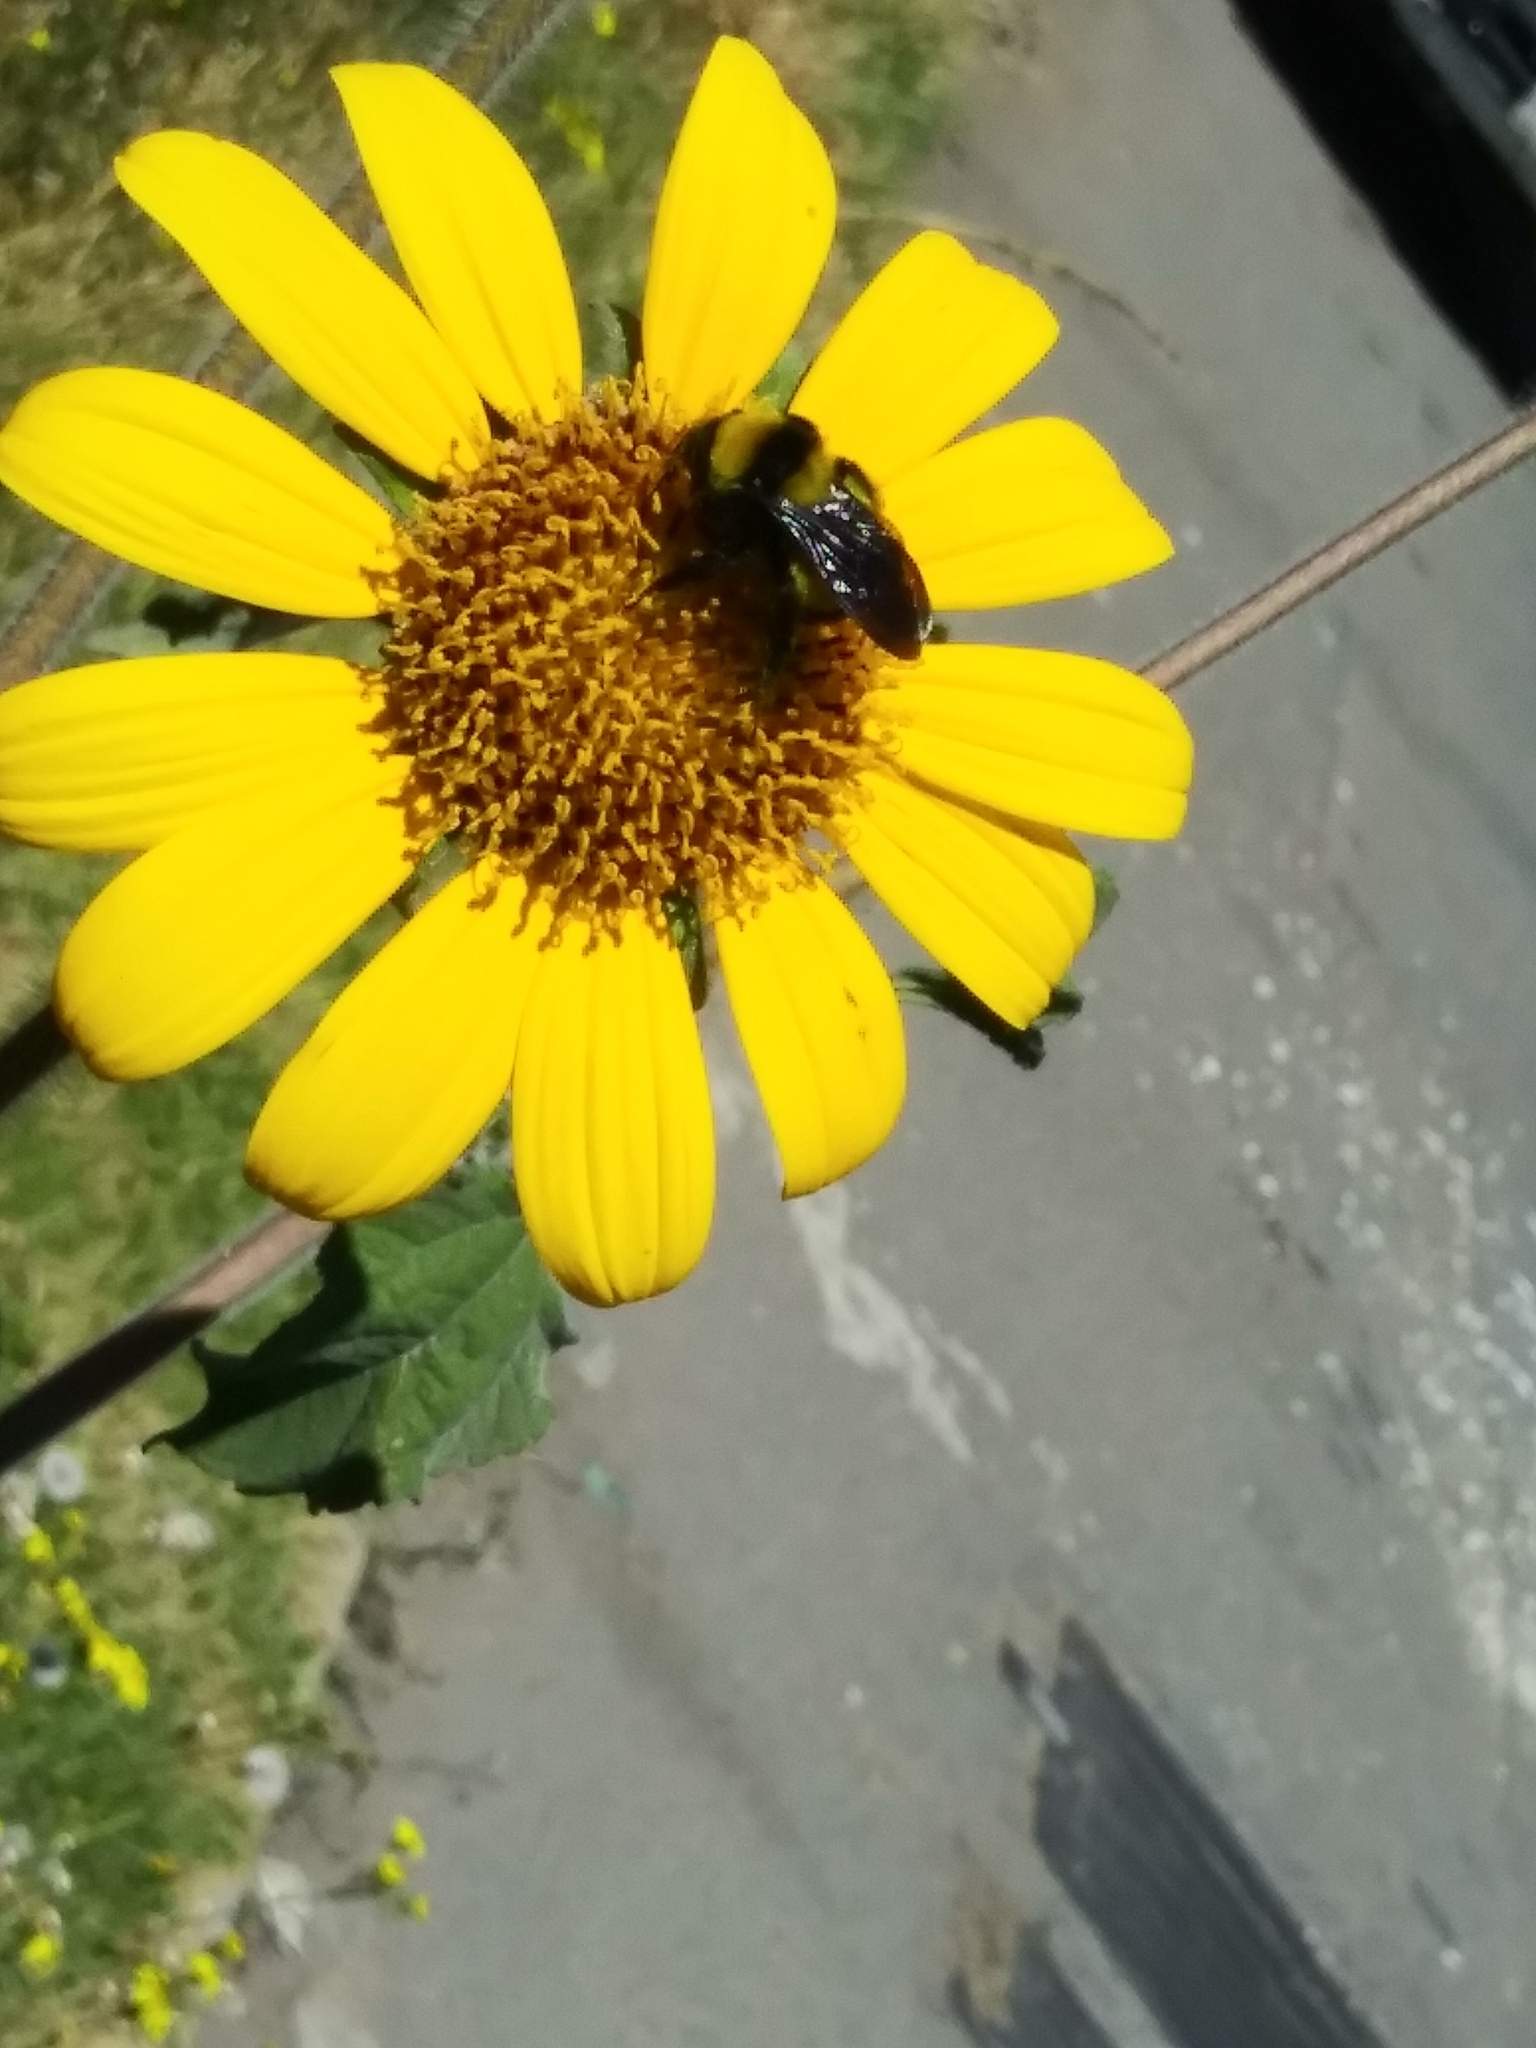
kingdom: Animalia
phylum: Arthropoda
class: Insecta
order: Hymenoptera
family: Apidae
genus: Bombus
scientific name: Bombus sonorus
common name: Sonoran bumble bee
